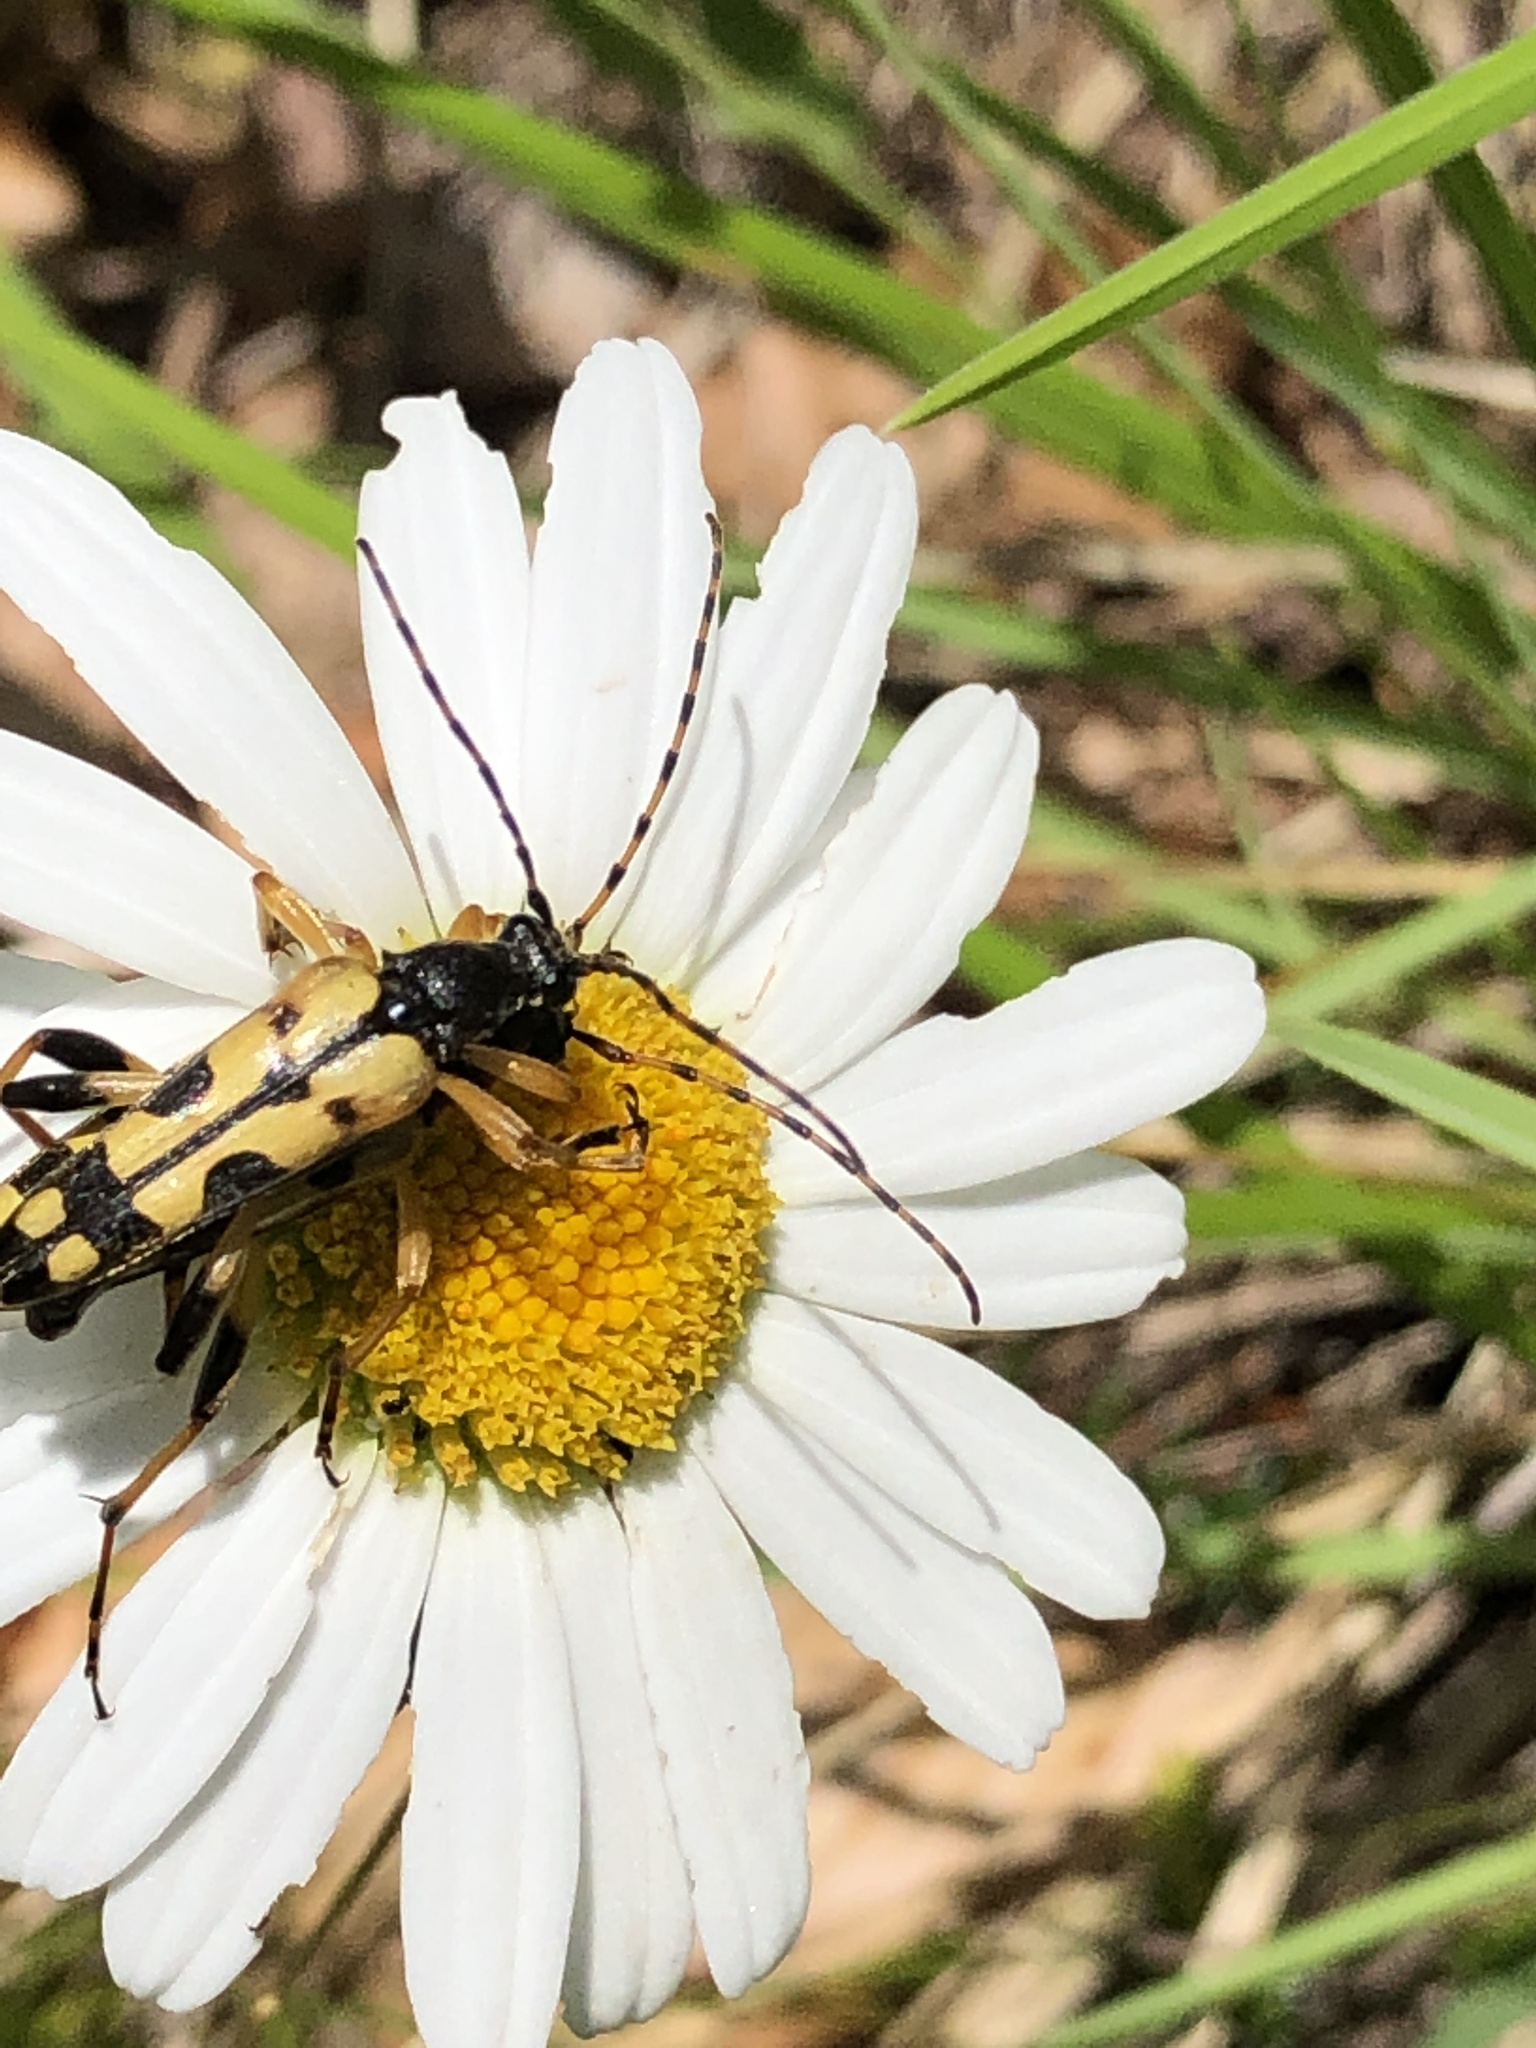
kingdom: Animalia
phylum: Arthropoda
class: Insecta
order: Coleoptera
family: Cerambycidae
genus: Rutpela
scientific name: Rutpela maculata
